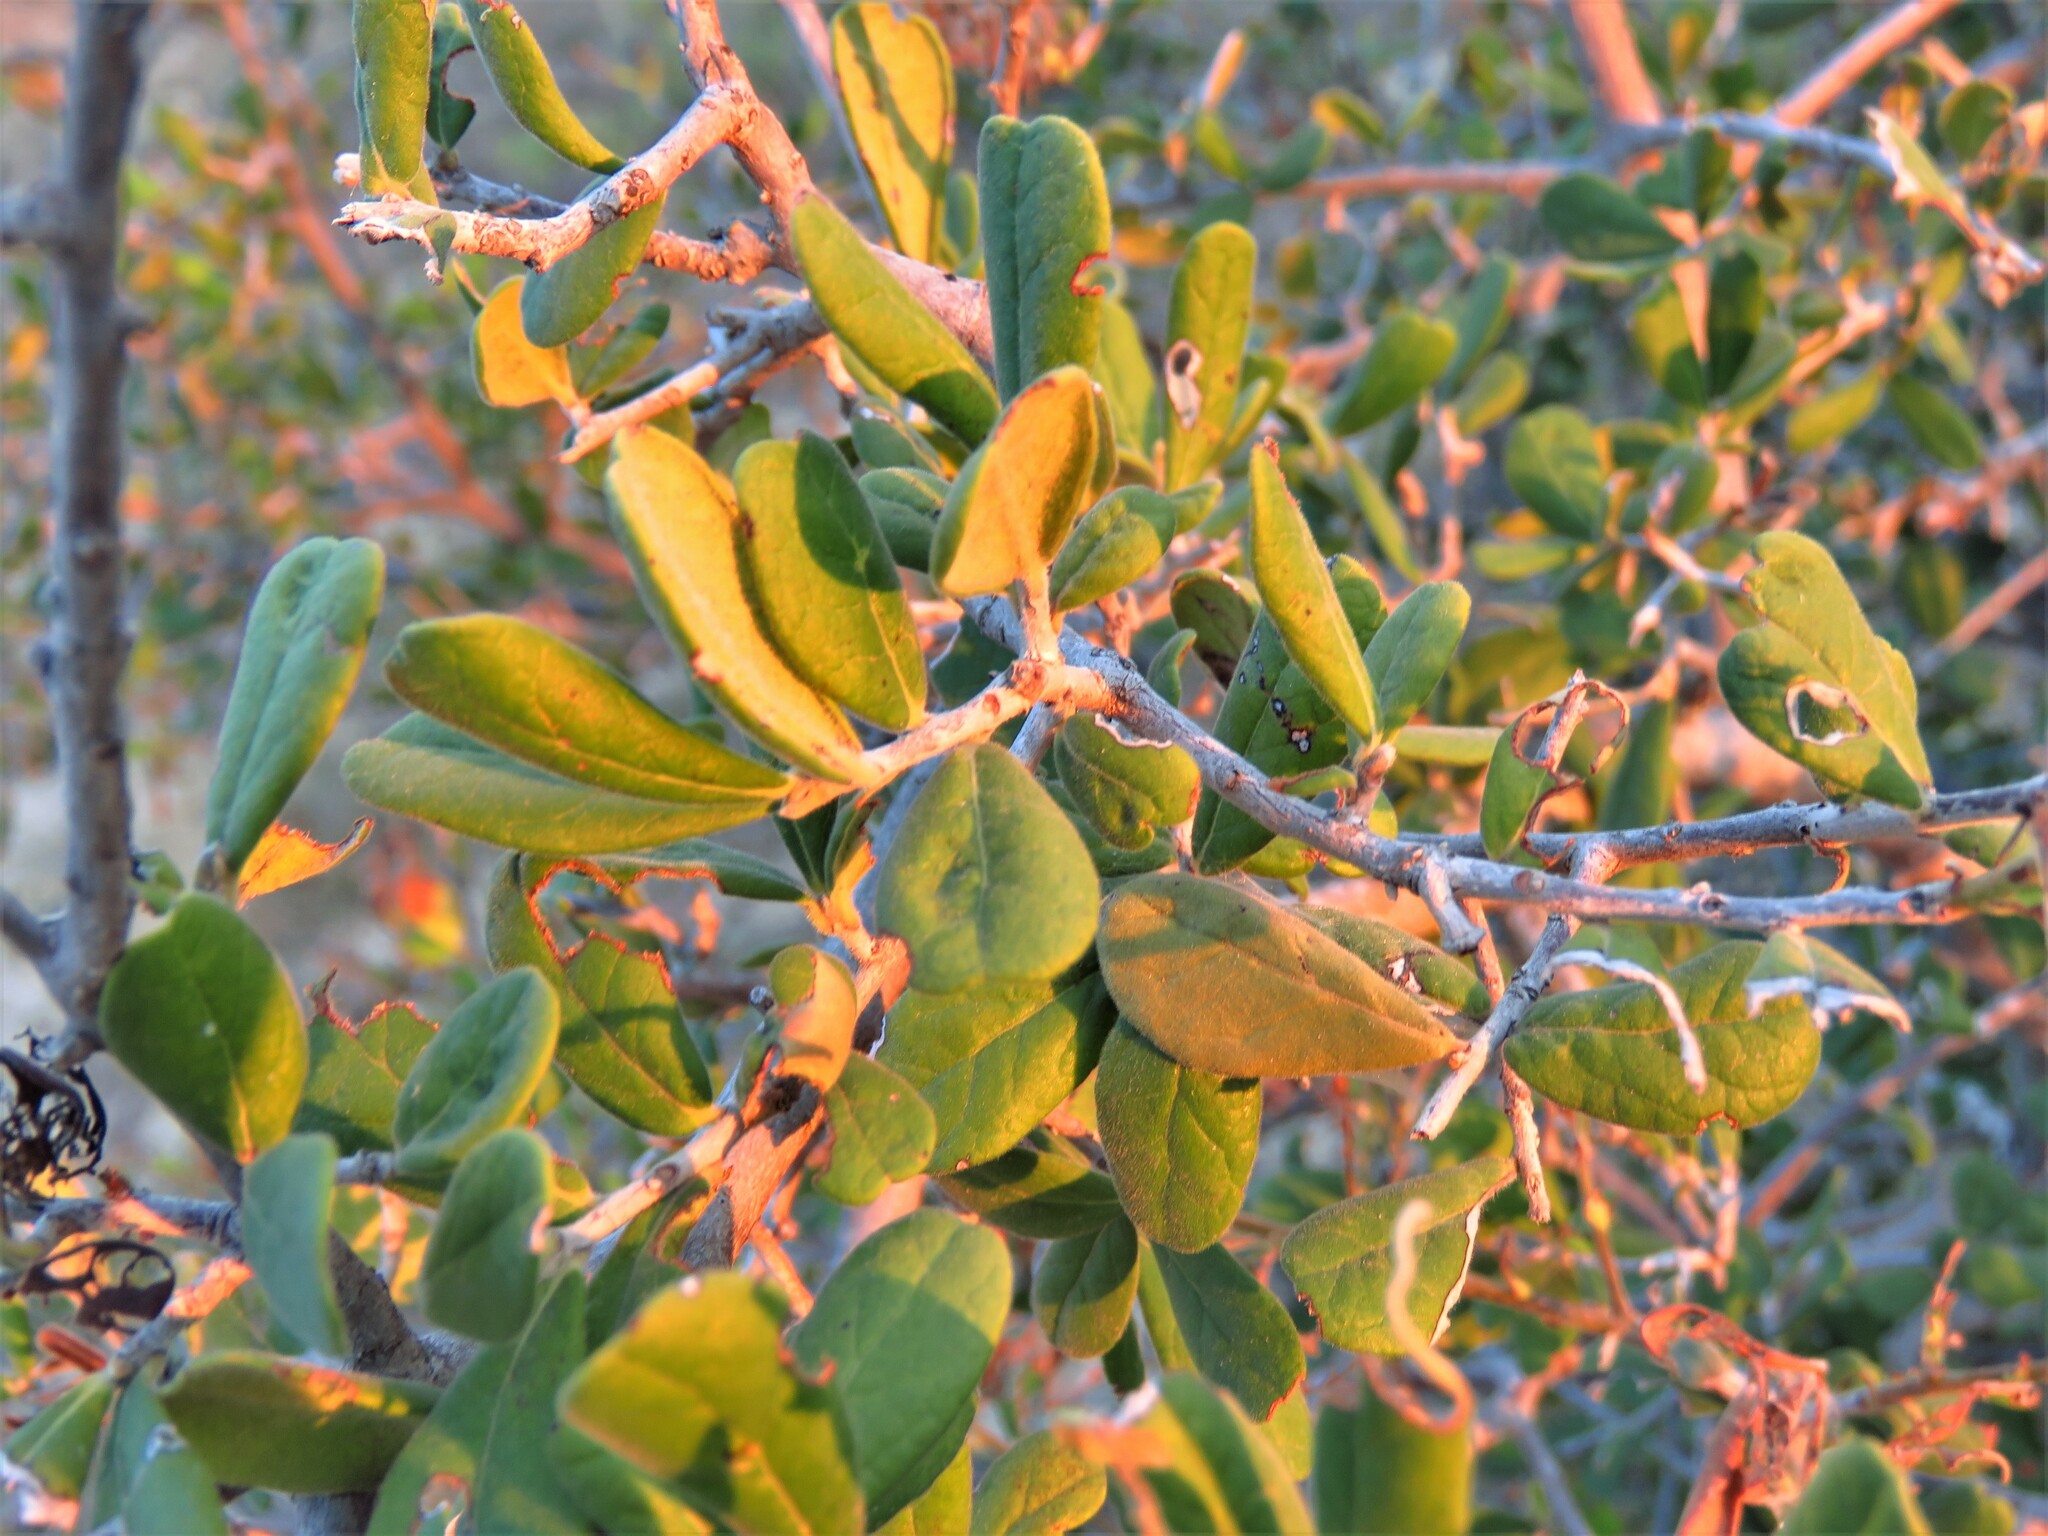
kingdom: Plantae
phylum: Tracheophyta
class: Magnoliopsida
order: Ericales
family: Ebenaceae
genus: Diospyros
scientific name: Diospyros texana
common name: Texas persimmon
